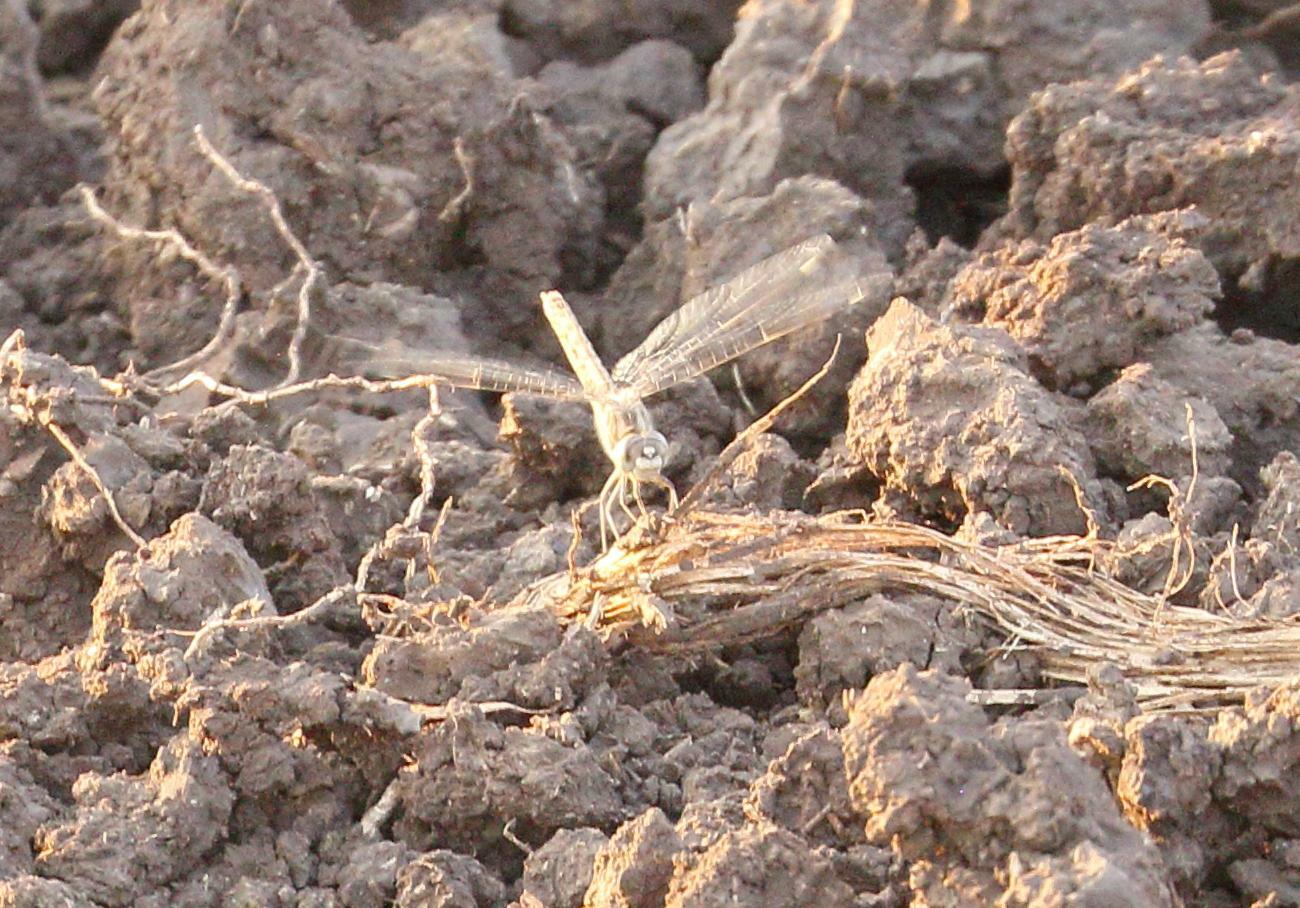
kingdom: Animalia
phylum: Arthropoda
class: Insecta
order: Odonata
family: Libellulidae
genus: Brachythemis
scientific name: Brachythemis leucosticta
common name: Banded groundling
